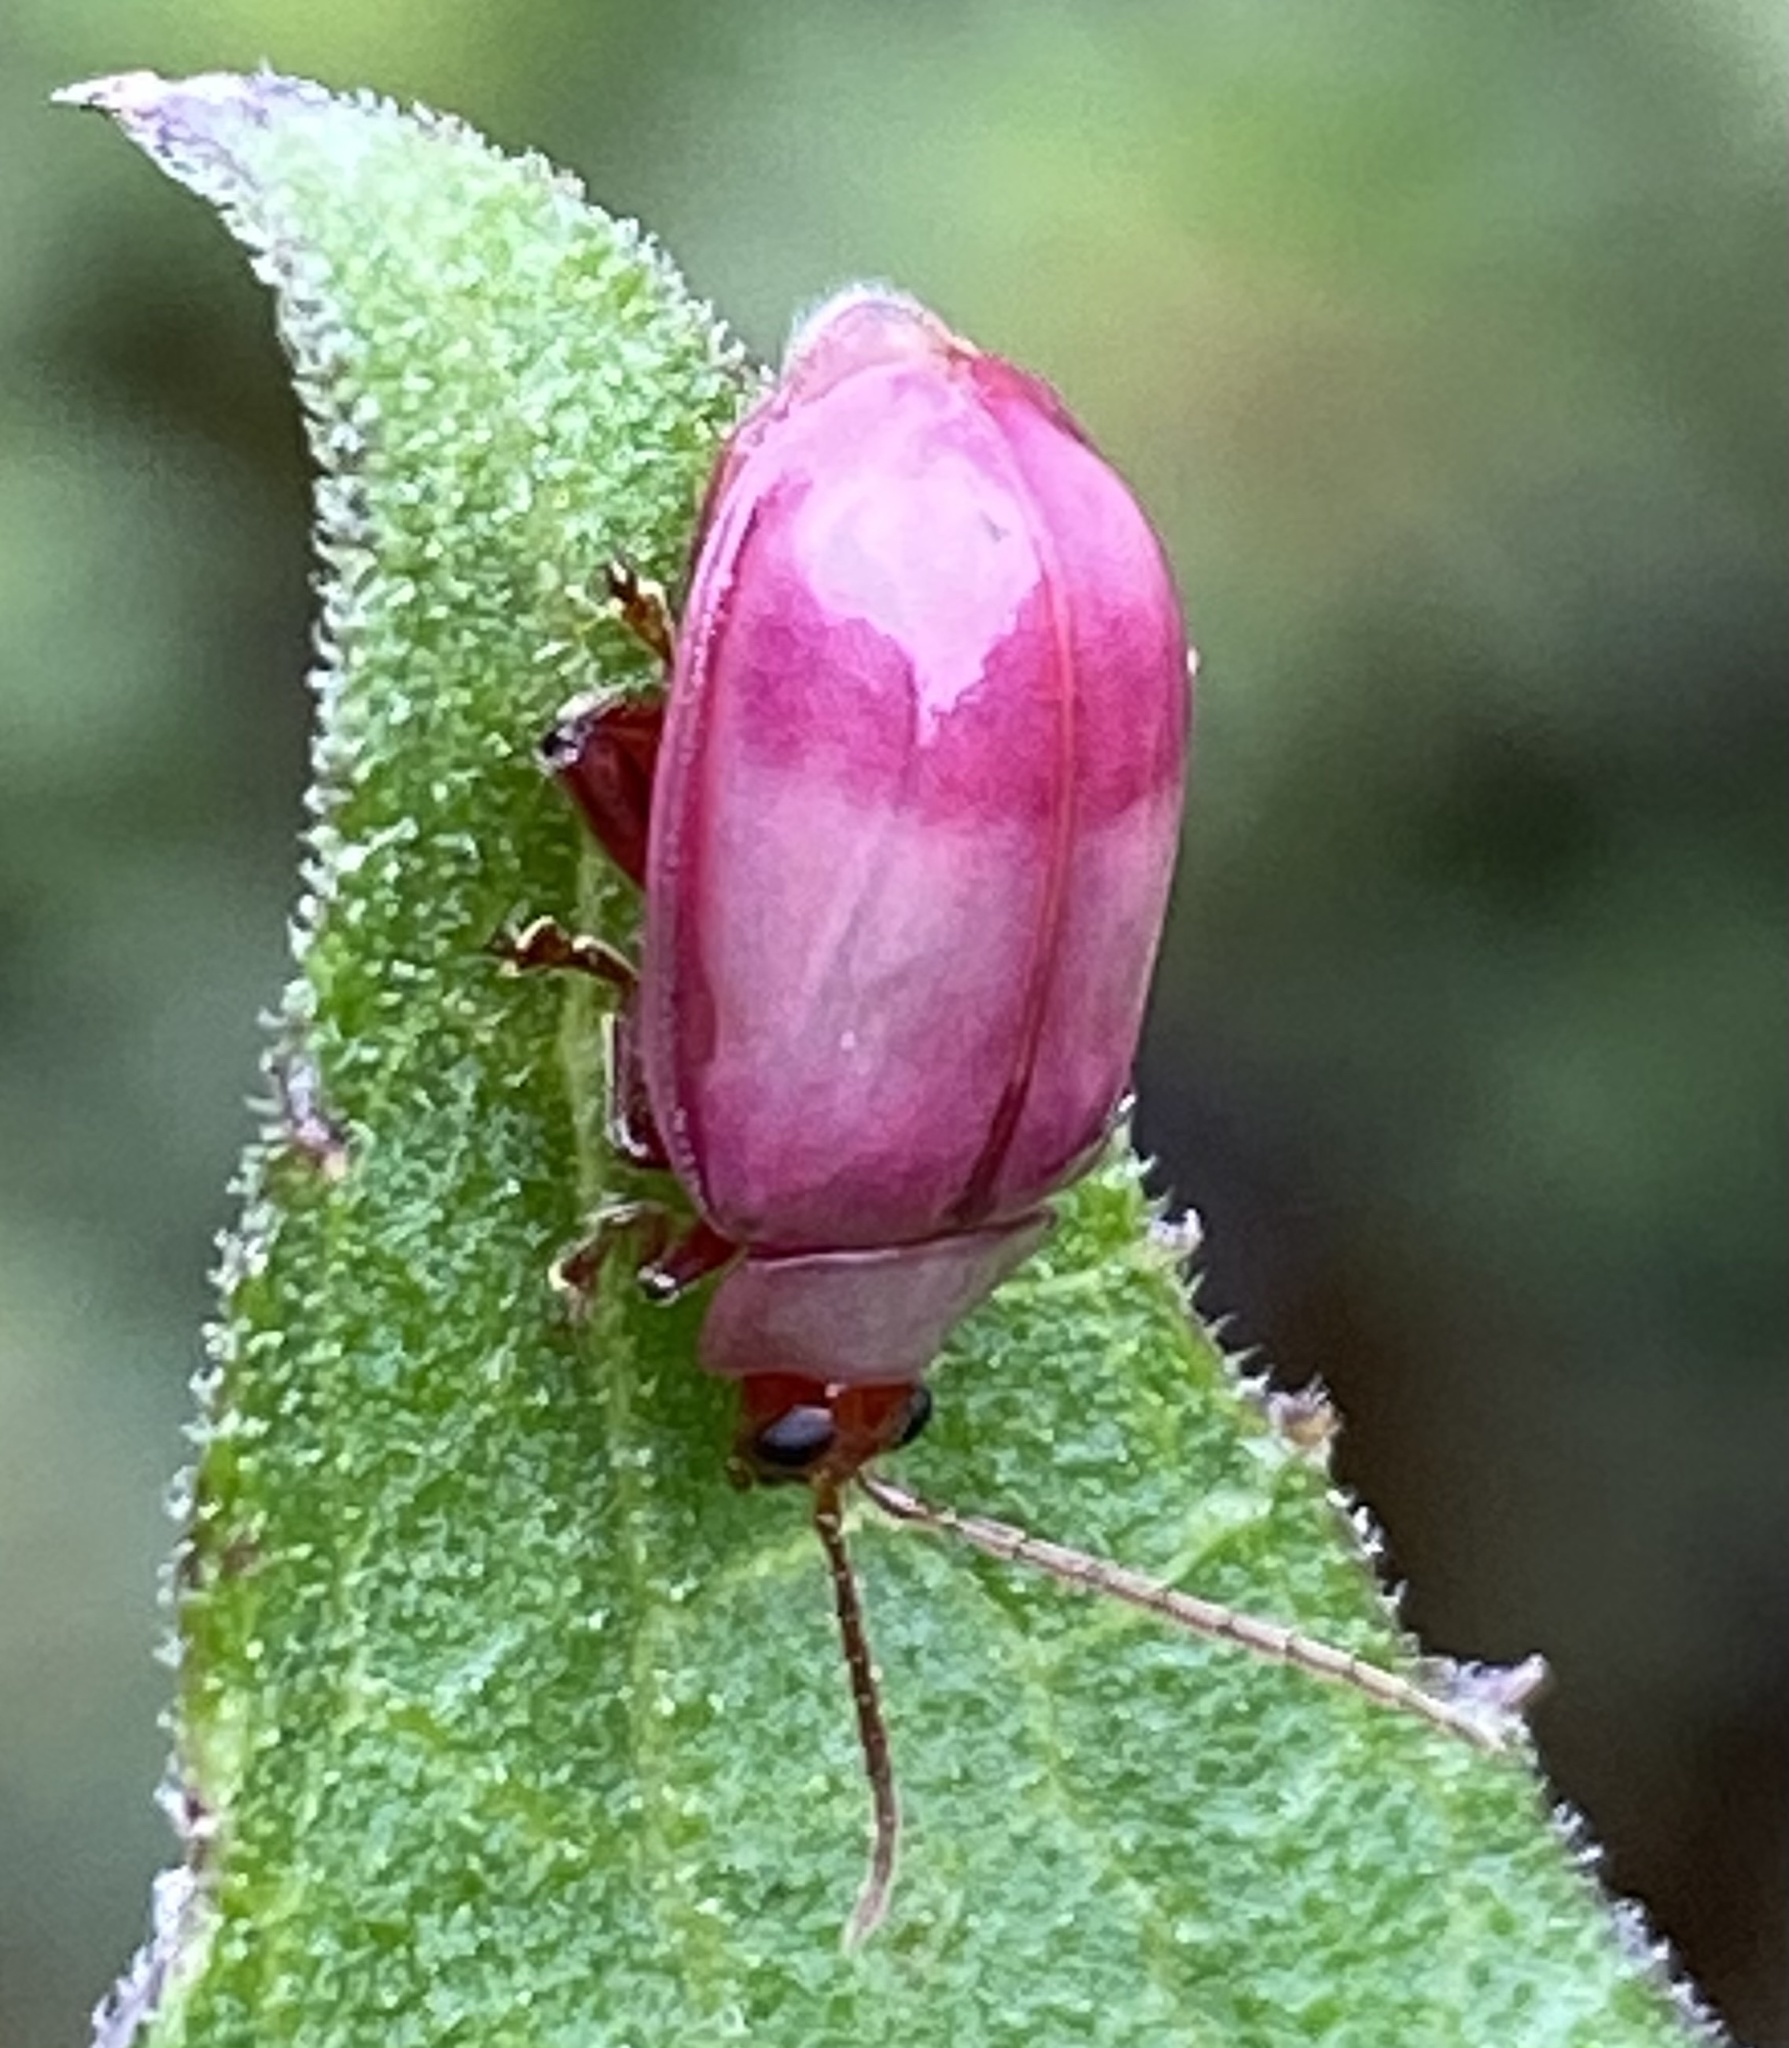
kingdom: Animalia
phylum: Arthropoda
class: Insecta
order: Coleoptera
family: Chrysomelidae
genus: Asphaera
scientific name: Asphaera
